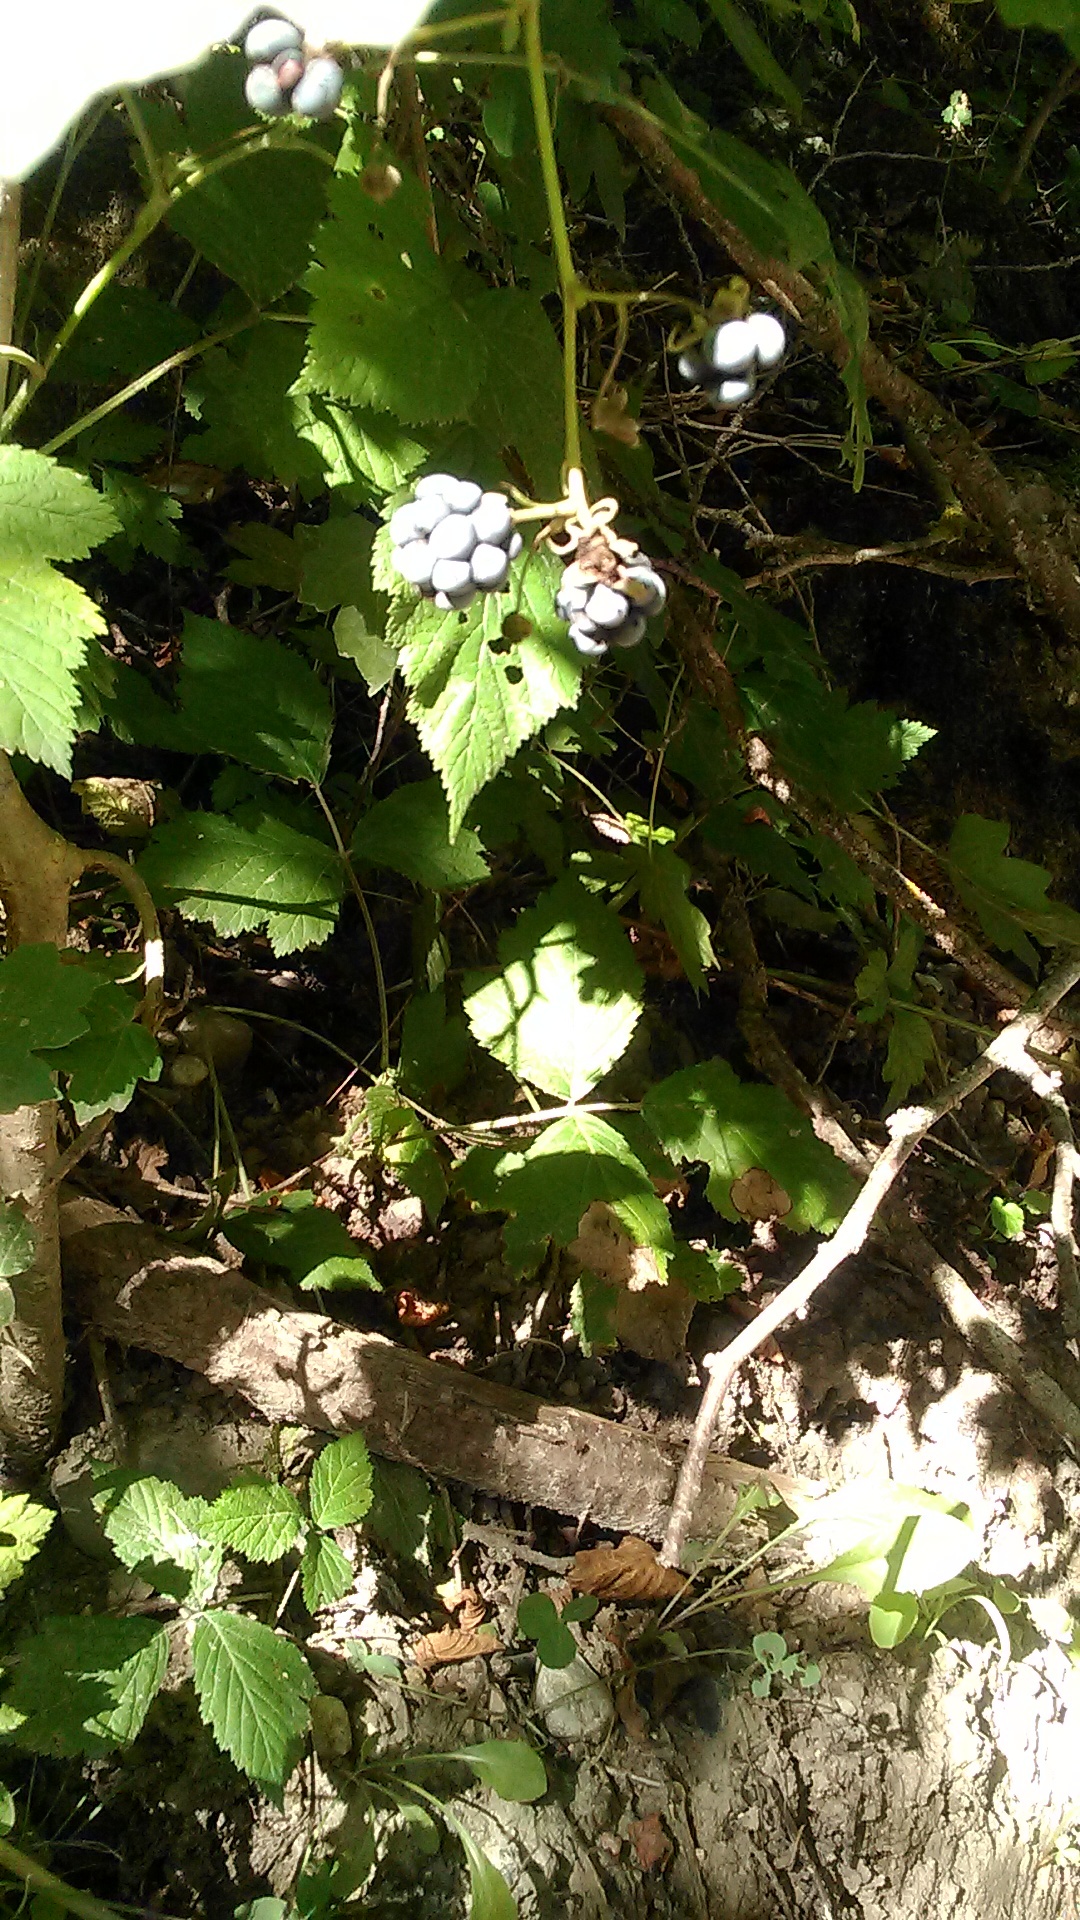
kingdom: Plantae
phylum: Tracheophyta
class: Magnoliopsida
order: Rosales
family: Rosaceae
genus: Rubus
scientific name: Rubus caesius
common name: Dewberry
